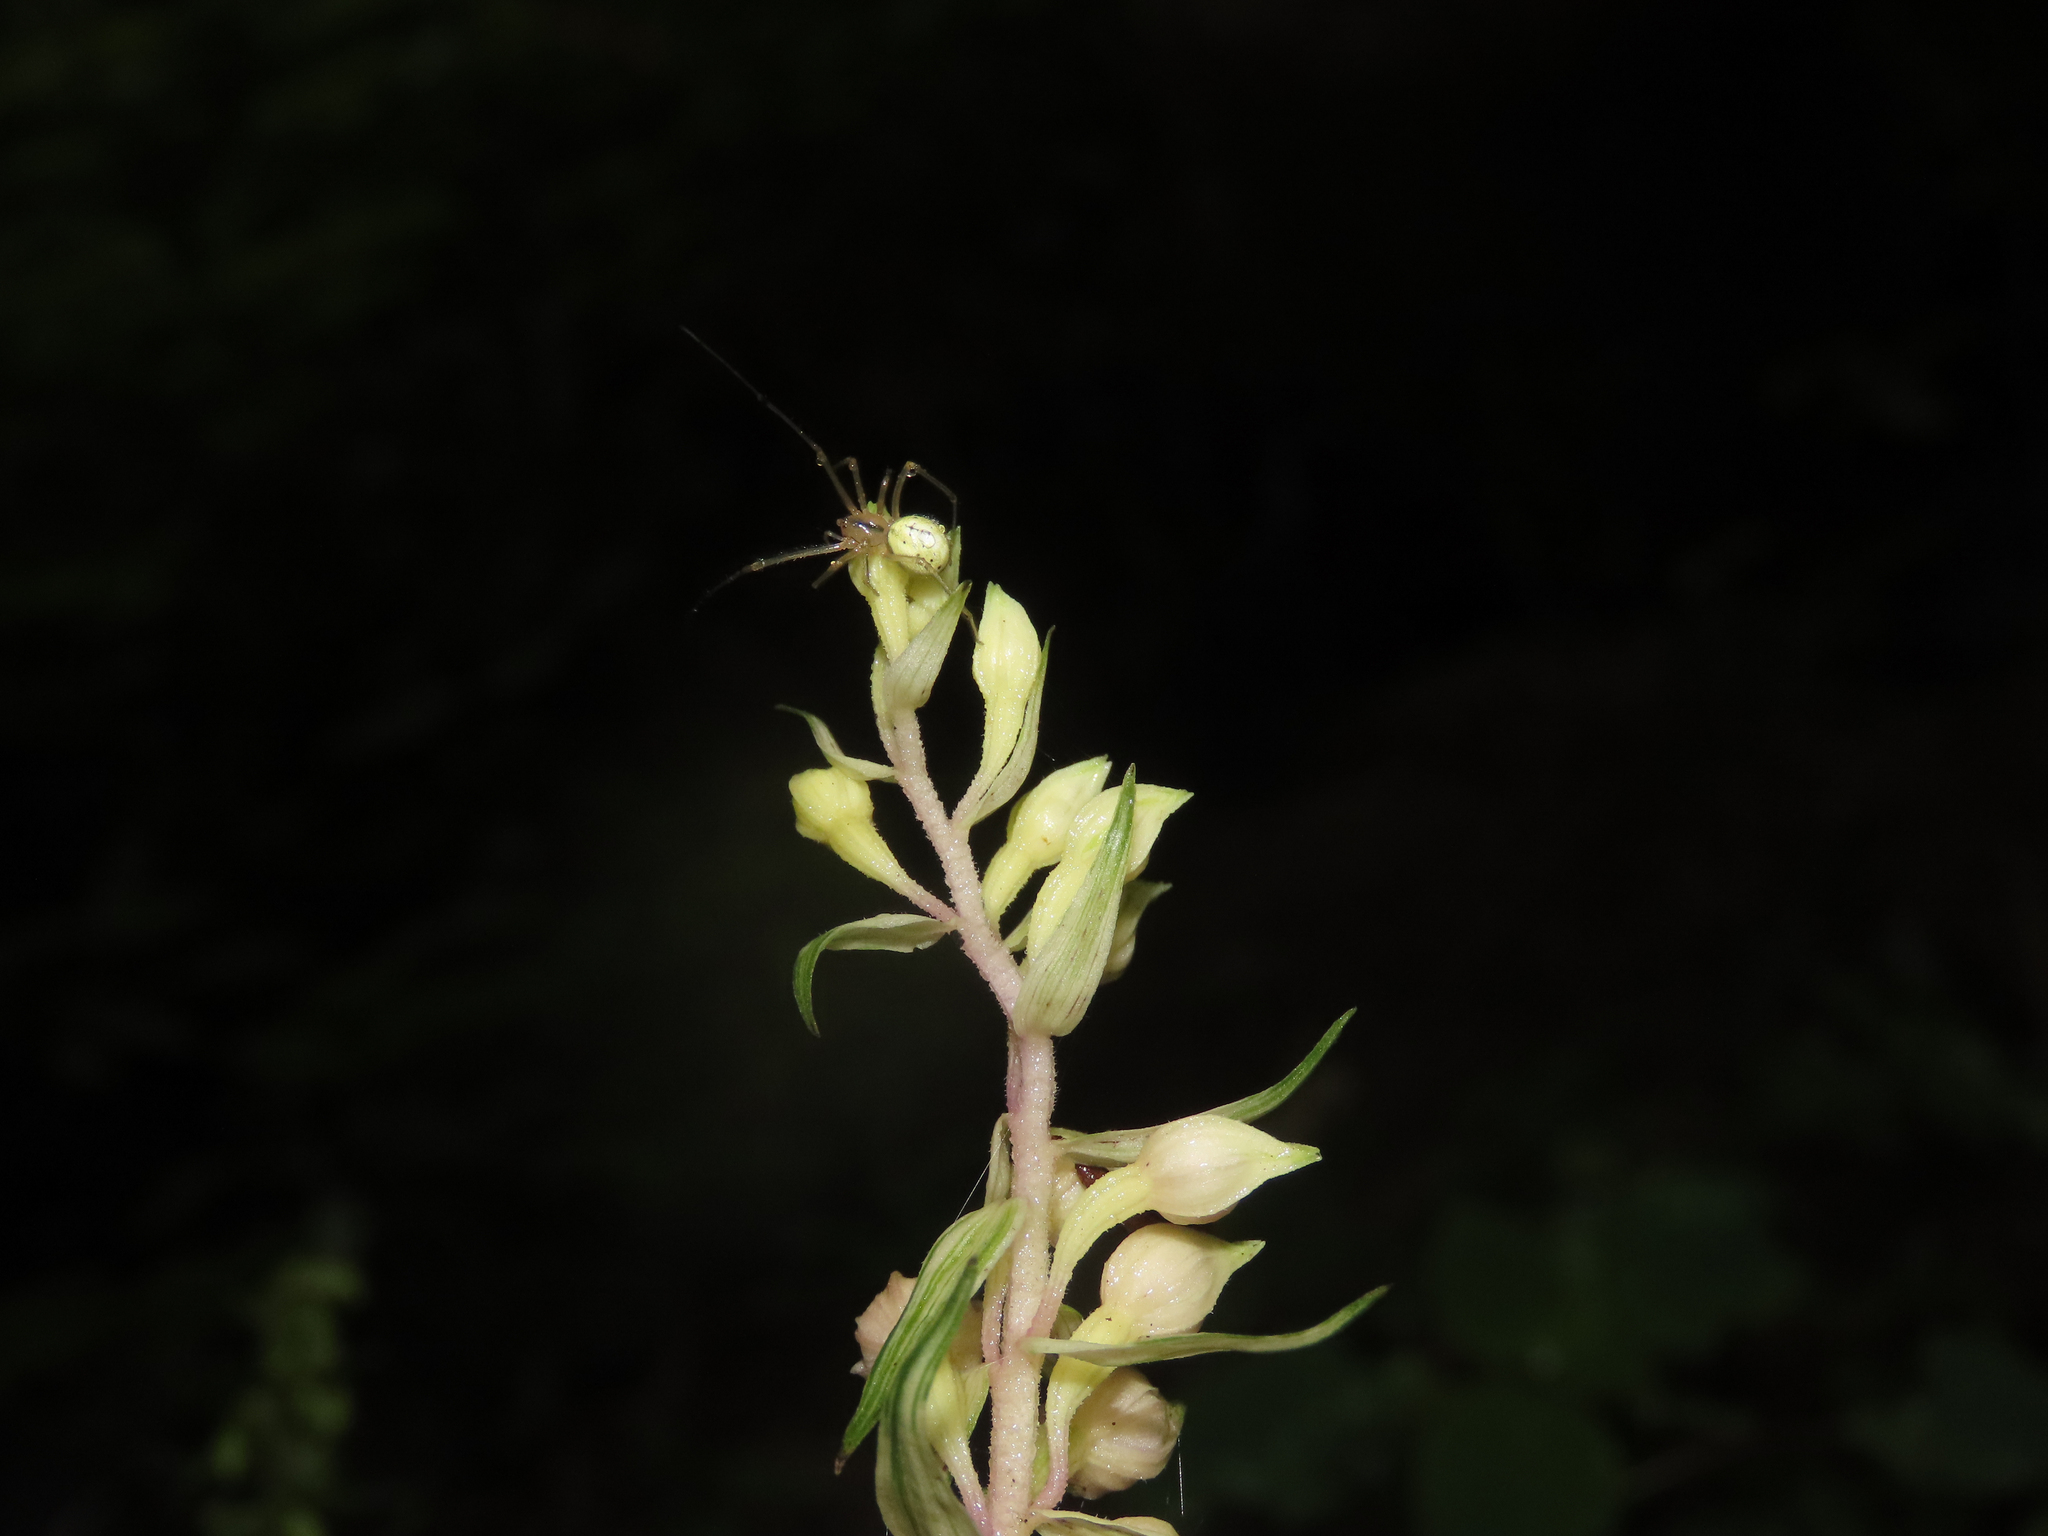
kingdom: Animalia
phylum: Arthropoda
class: Arachnida
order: Araneae
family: Theridiidae
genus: Enoplognatha
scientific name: Enoplognatha ovata
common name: Common candy-striped spider
